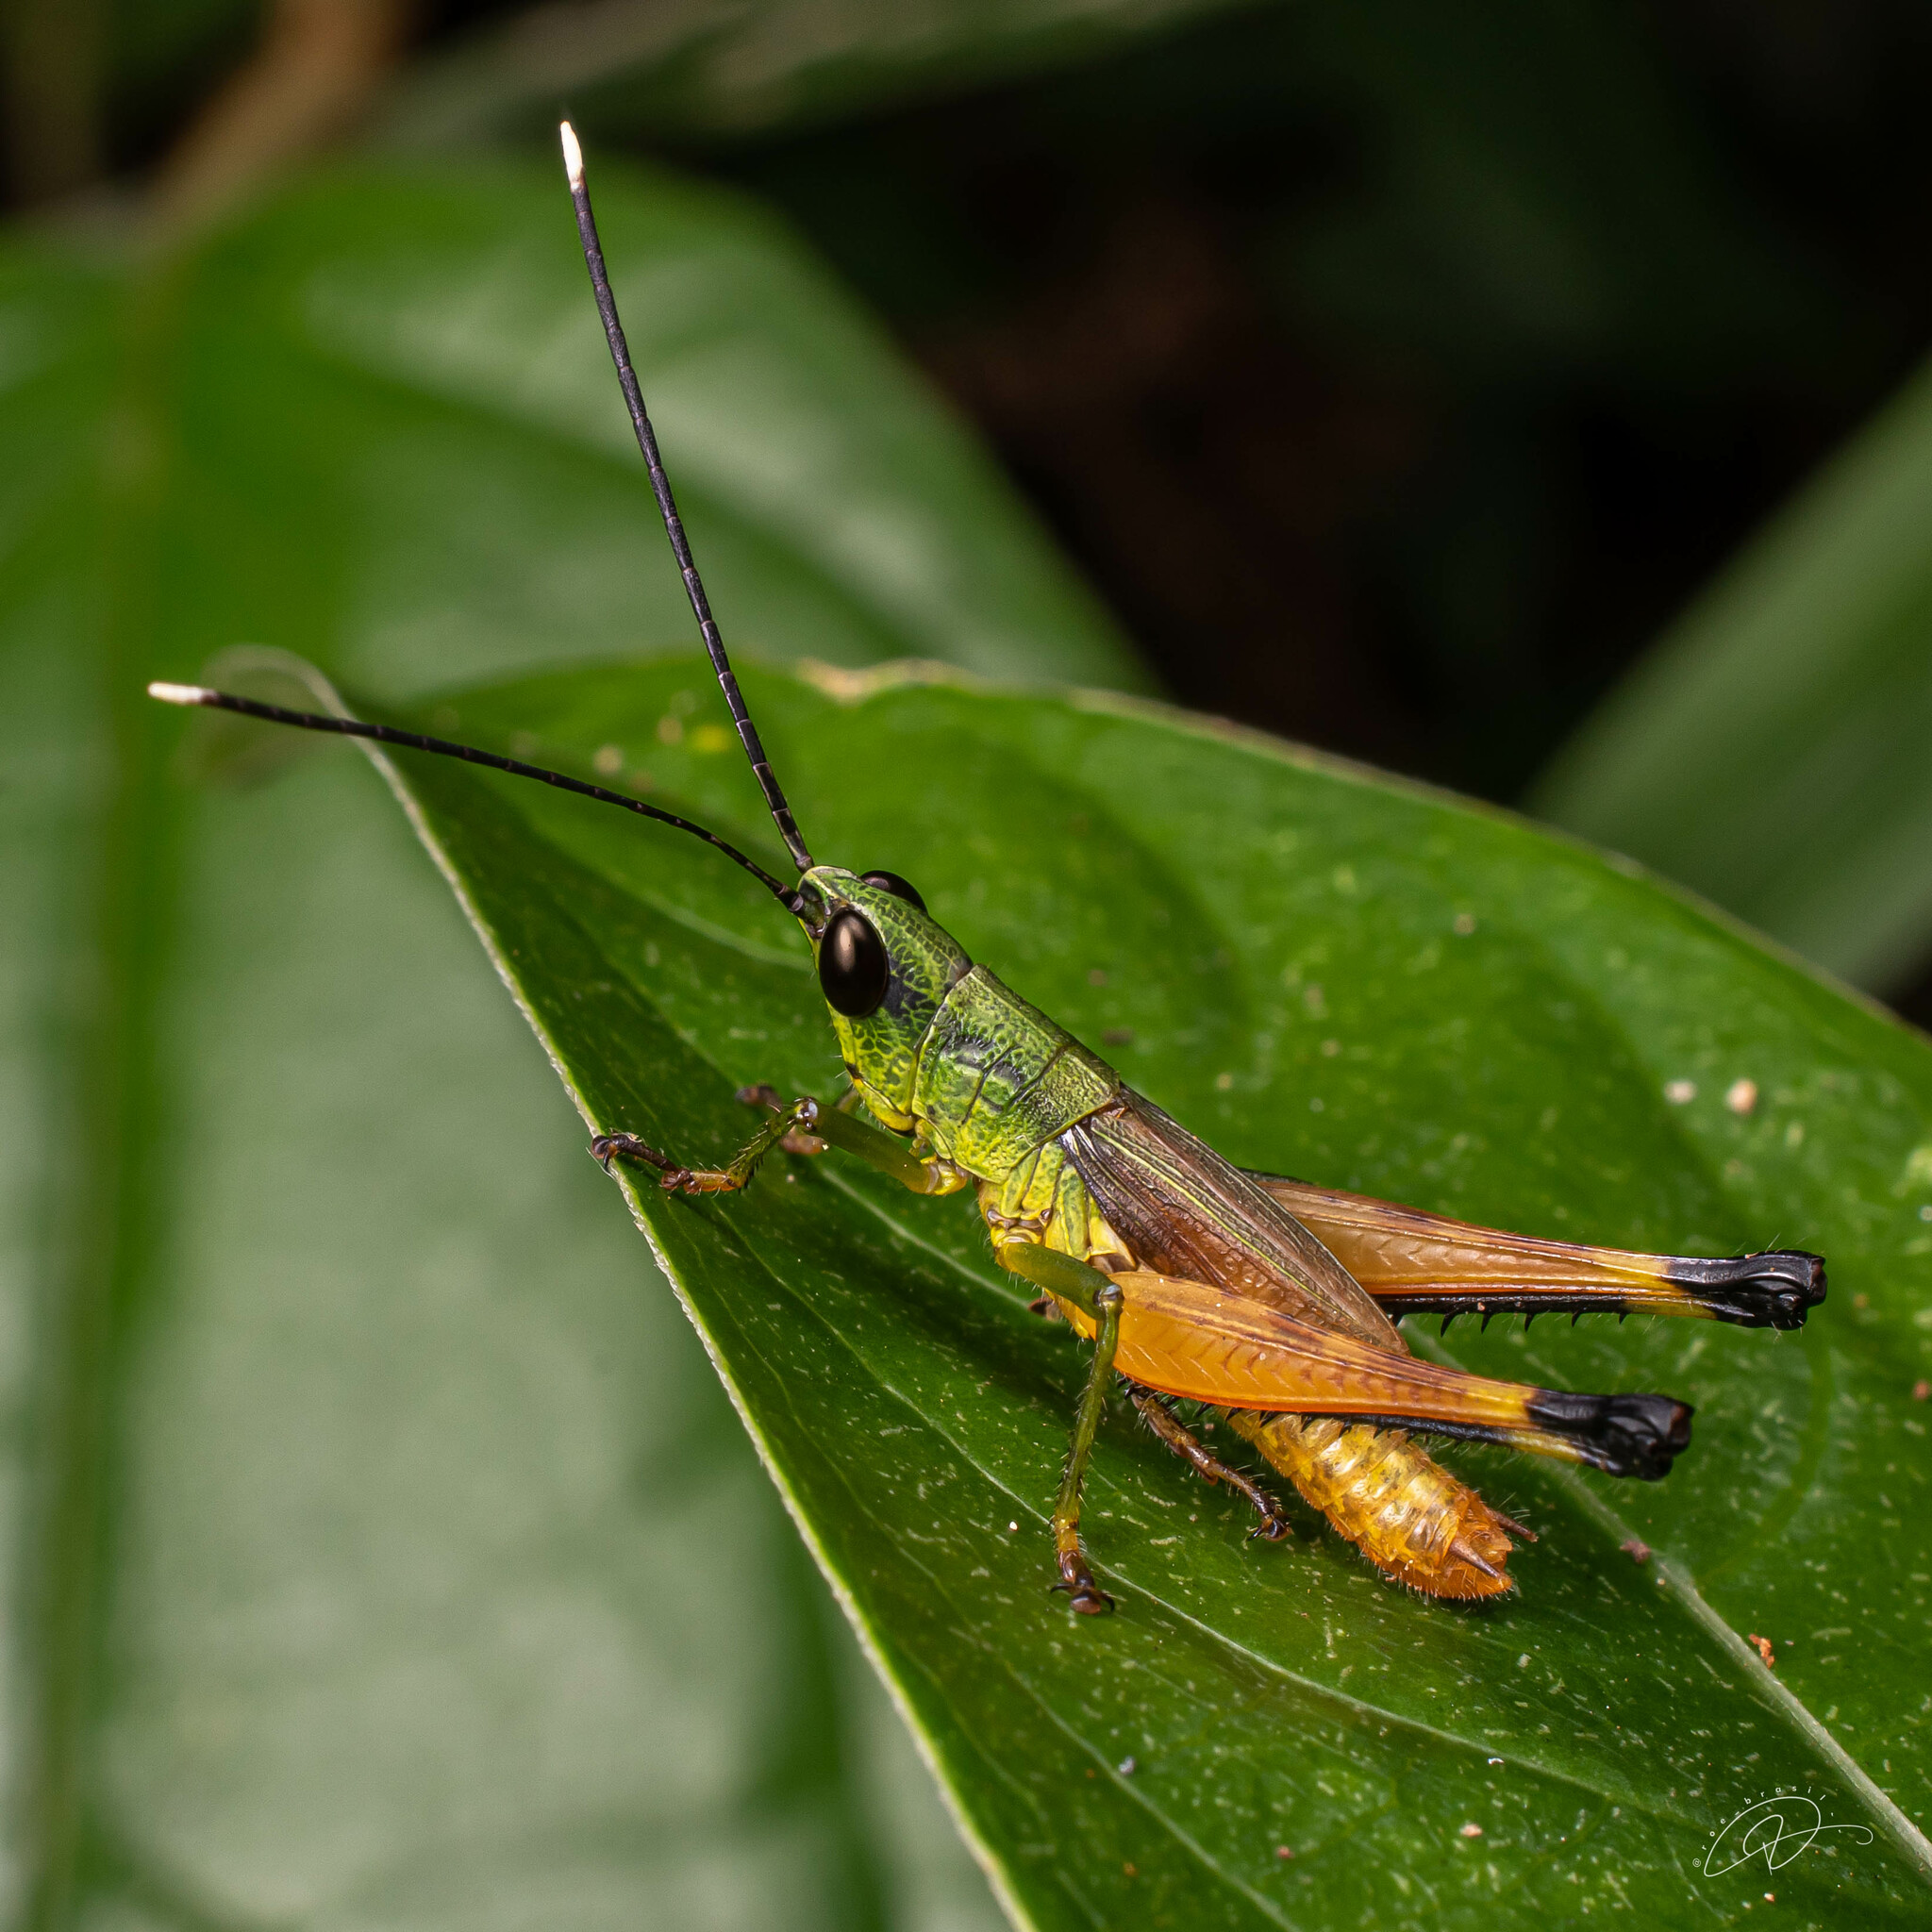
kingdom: Animalia
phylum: Arthropoda
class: Insecta
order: Orthoptera
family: Acrididae
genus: Silvitettix
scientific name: Silvitettix territus
